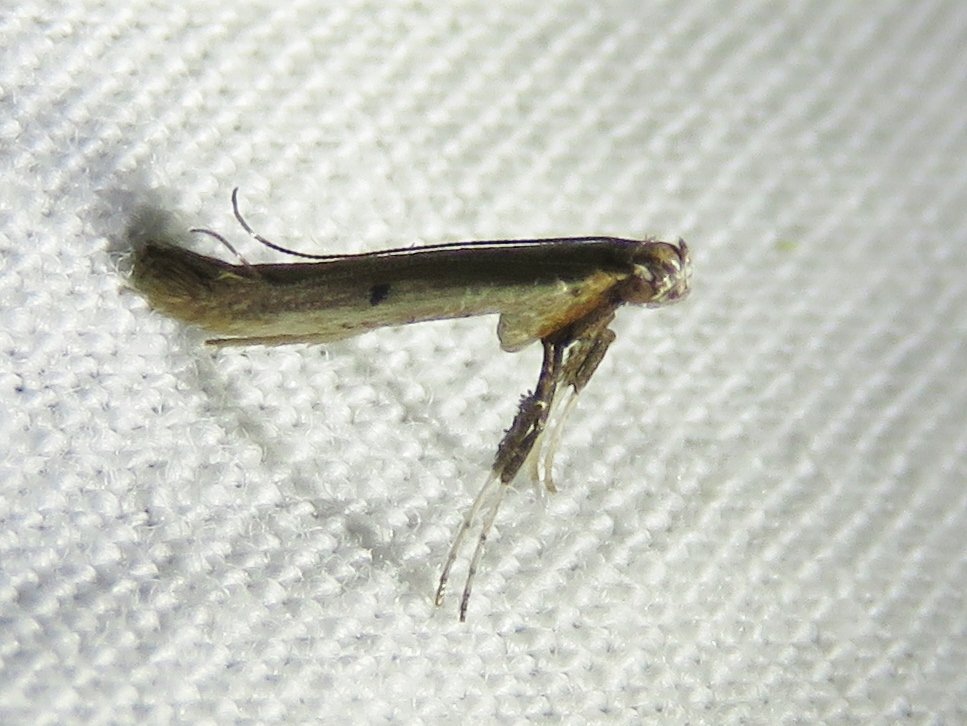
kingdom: Animalia
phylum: Arthropoda
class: Insecta
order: Lepidoptera
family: Gracillariidae
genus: Caloptilia
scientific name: Caloptilia violacella
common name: Tick-trefoil caloptilia moth
